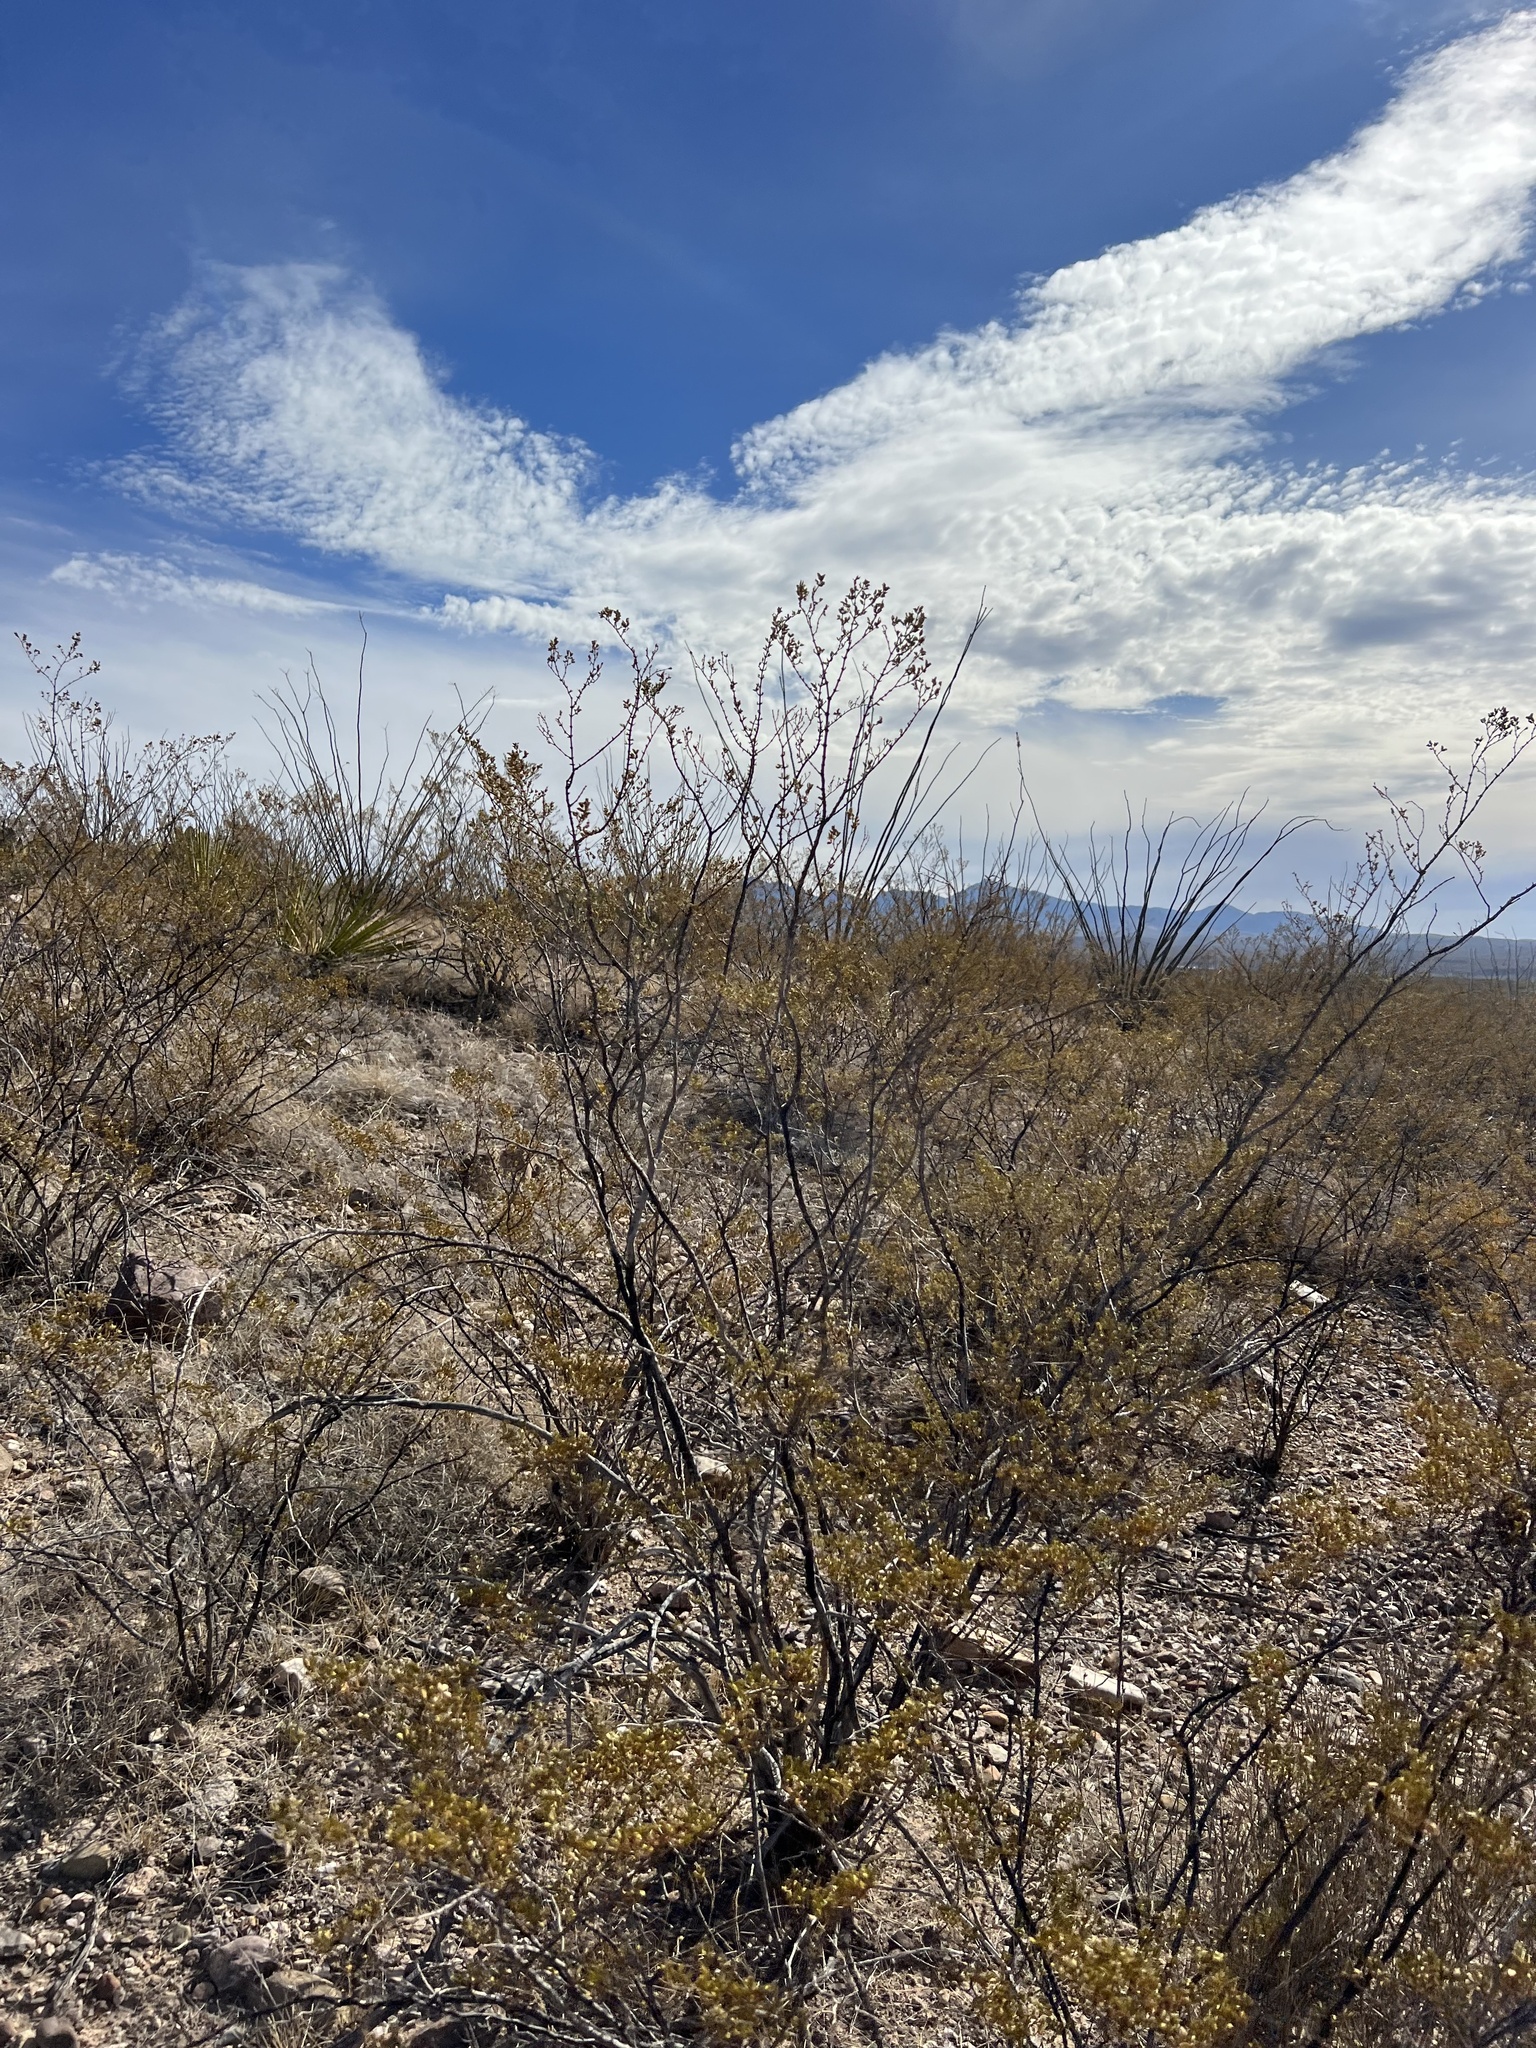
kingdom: Plantae
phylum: Tracheophyta
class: Magnoliopsida
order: Zygophyllales
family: Zygophyllaceae
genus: Larrea
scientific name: Larrea tridentata
